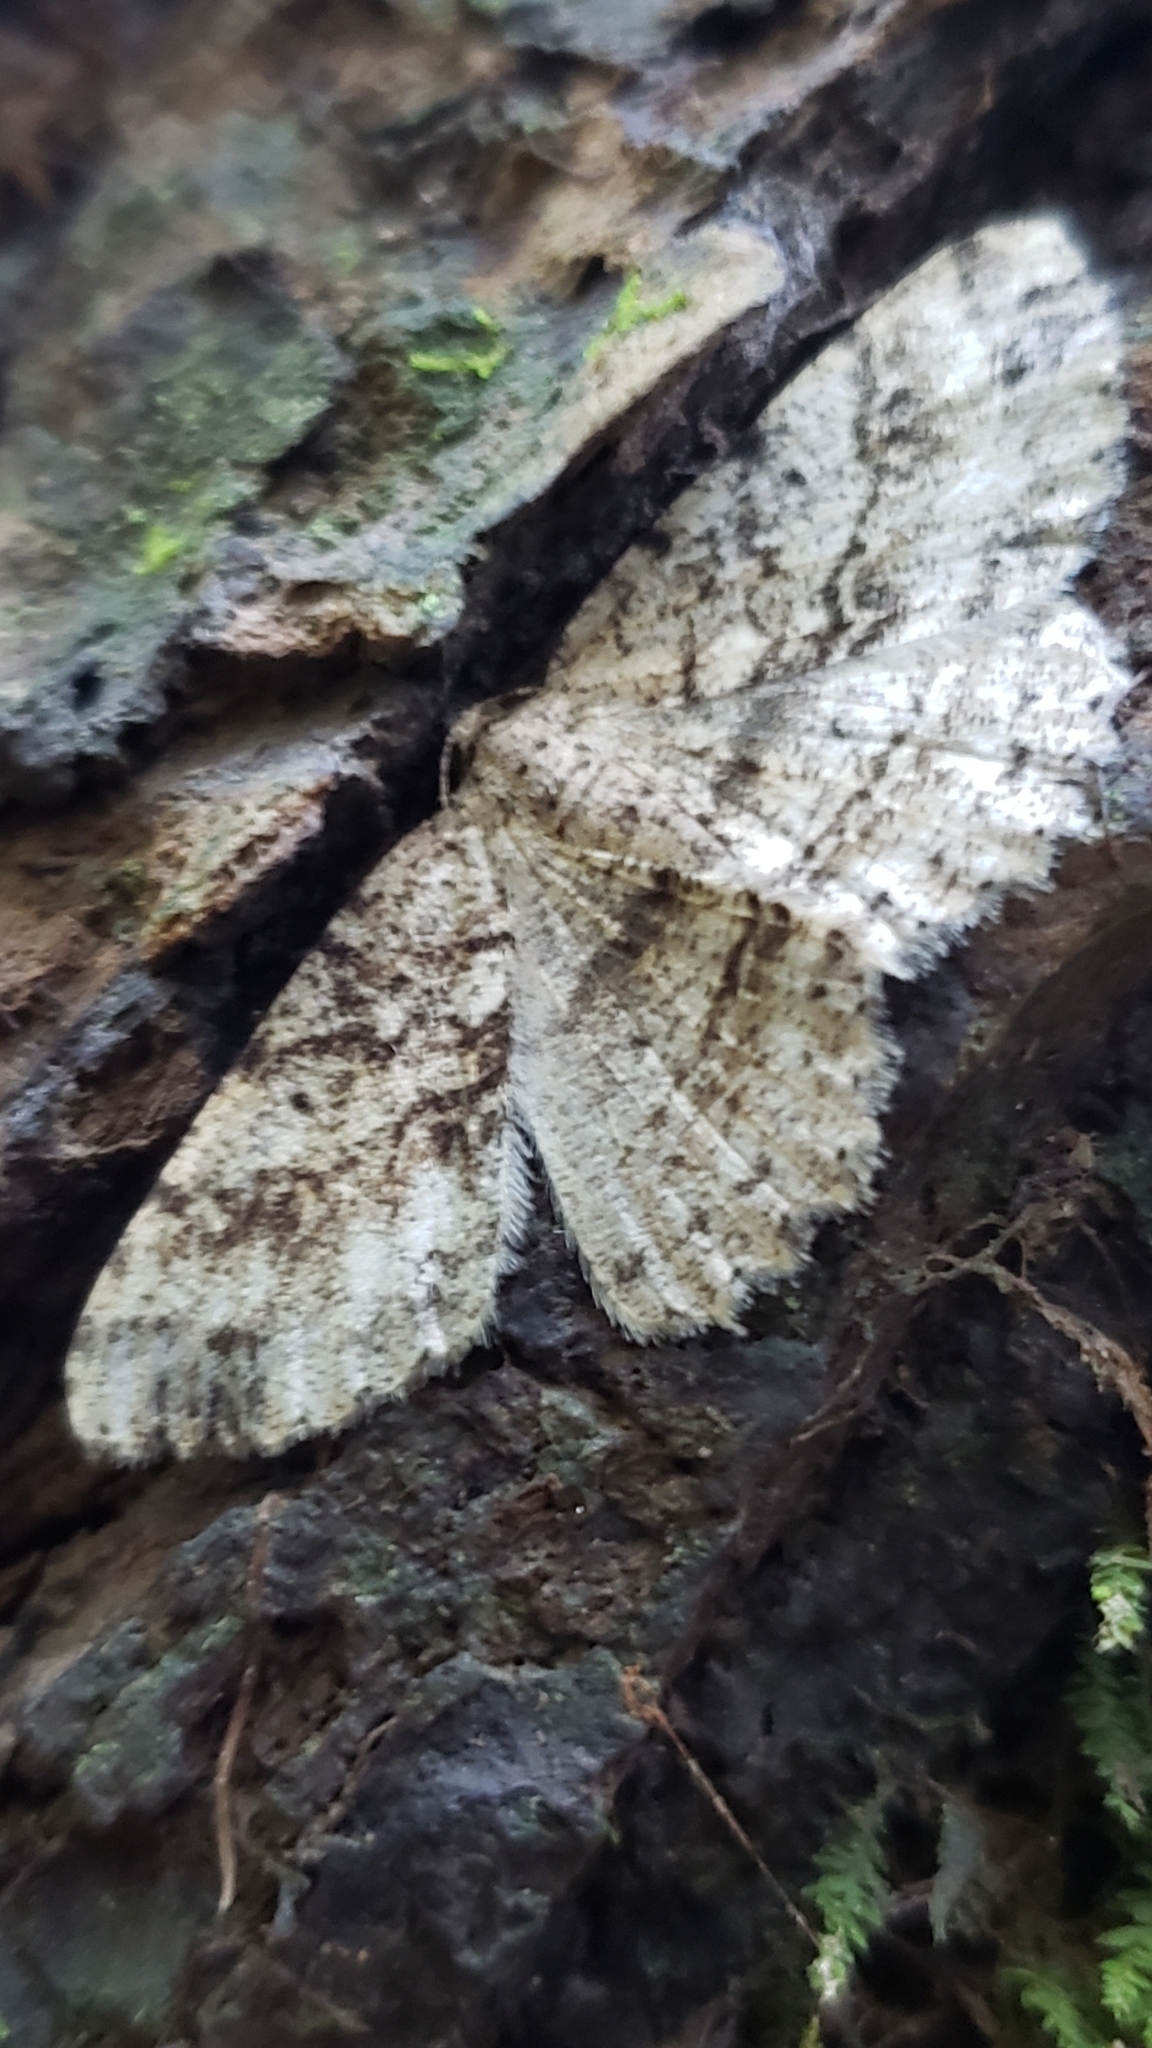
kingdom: Animalia
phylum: Arthropoda
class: Insecta
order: Lepidoptera
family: Geometridae
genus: Melanolophia
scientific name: Melanolophia canadaria
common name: Canadian melanolophia
